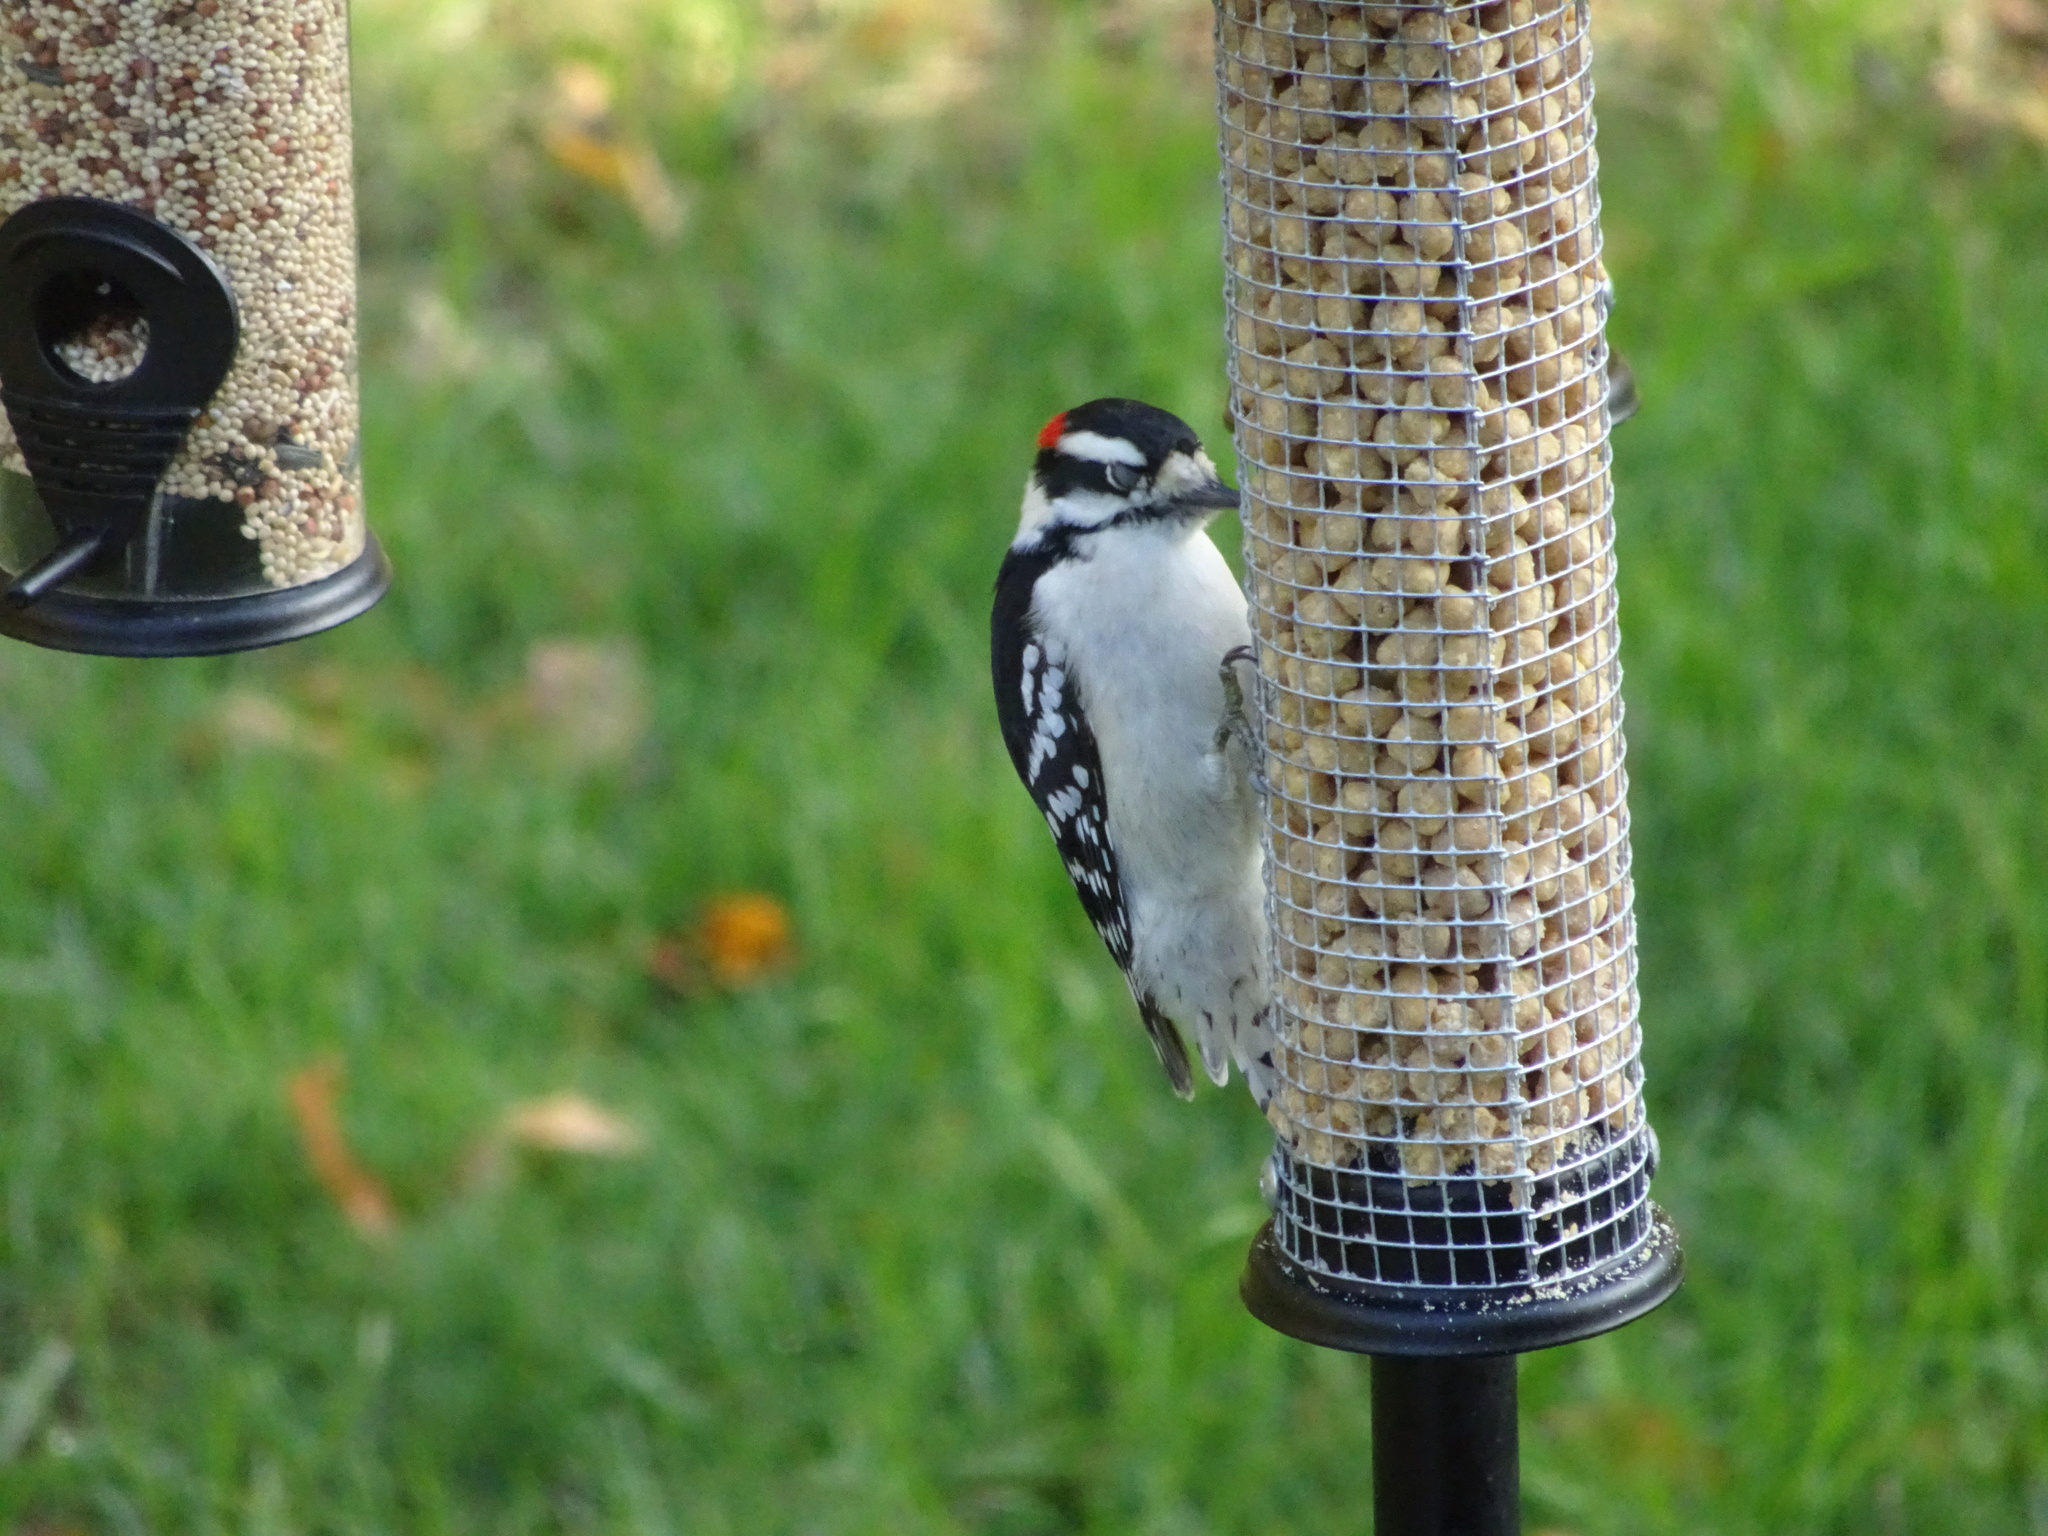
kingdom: Animalia
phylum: Chordata
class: Aves
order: Piciformes
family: Picidae
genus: Dryobates
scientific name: Dryobates pubescens
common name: Downy woodpecker
